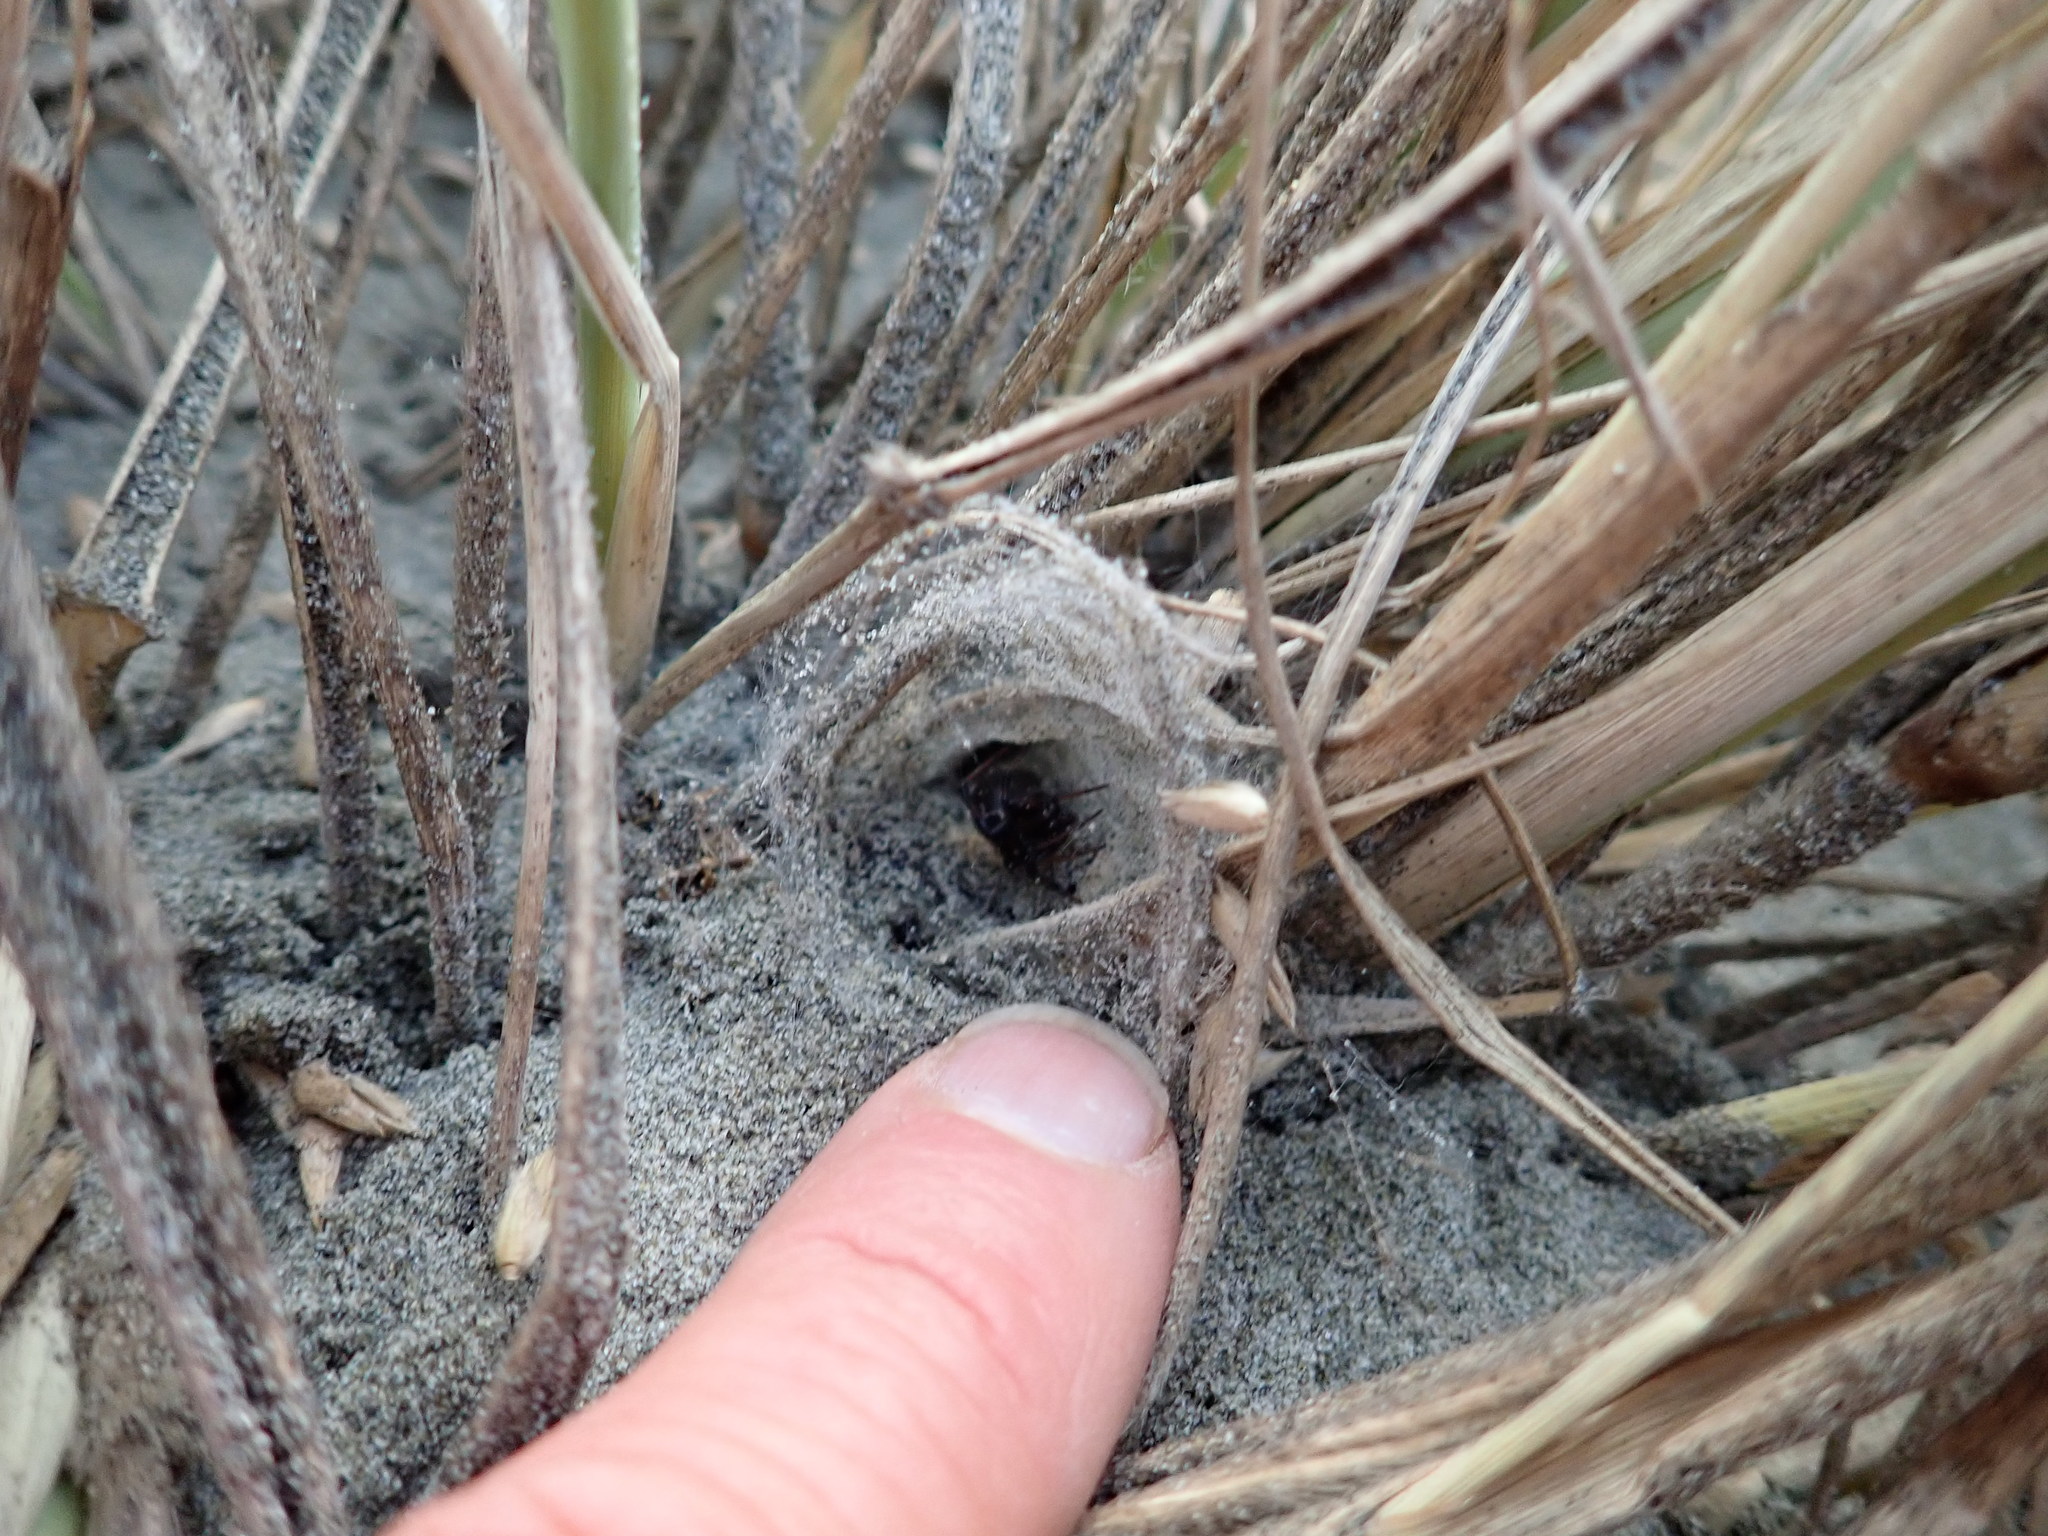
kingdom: Animalia
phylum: Arthropoda
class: Arachnida
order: Araneae
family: Theridiidae
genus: Latrodectus
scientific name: Latrodectus katipo
